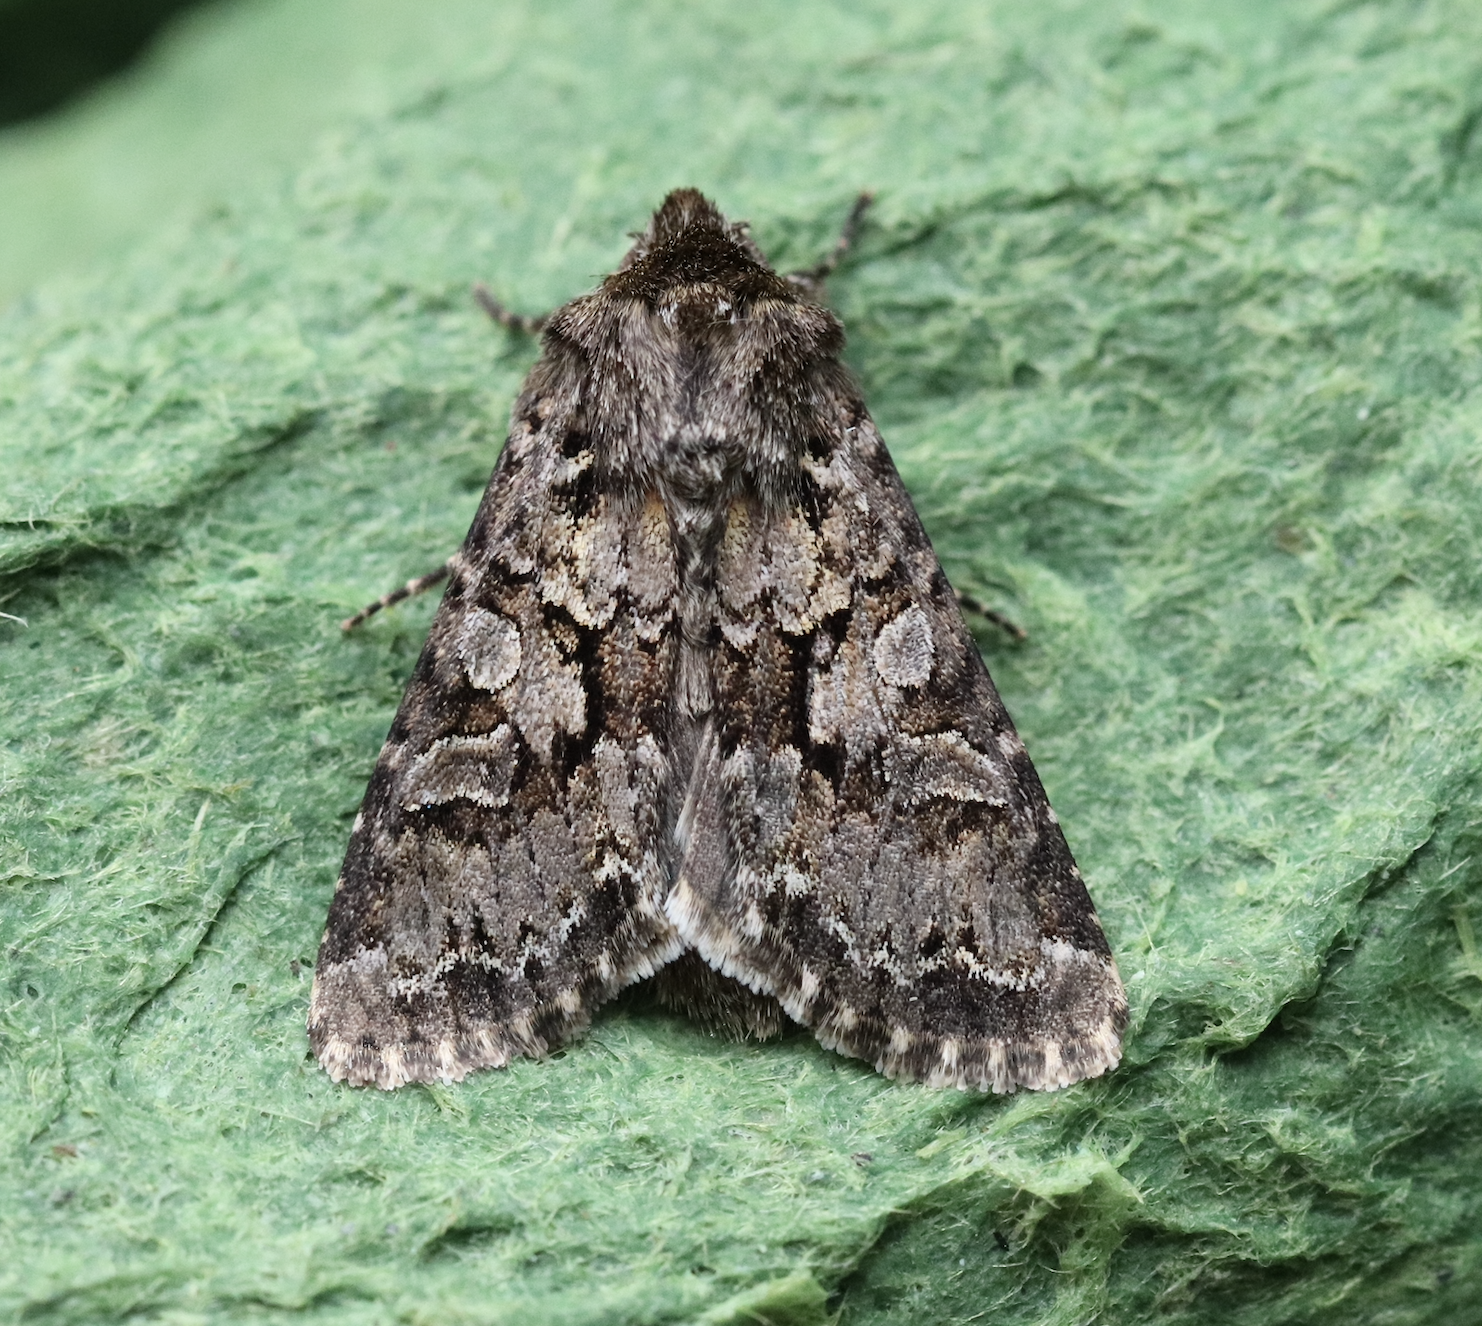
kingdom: Animalia
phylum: Arthropoda
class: Insecta
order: Lepidoptera
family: Noctuidae
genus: Hada
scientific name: Hada plebeja
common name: Shears
